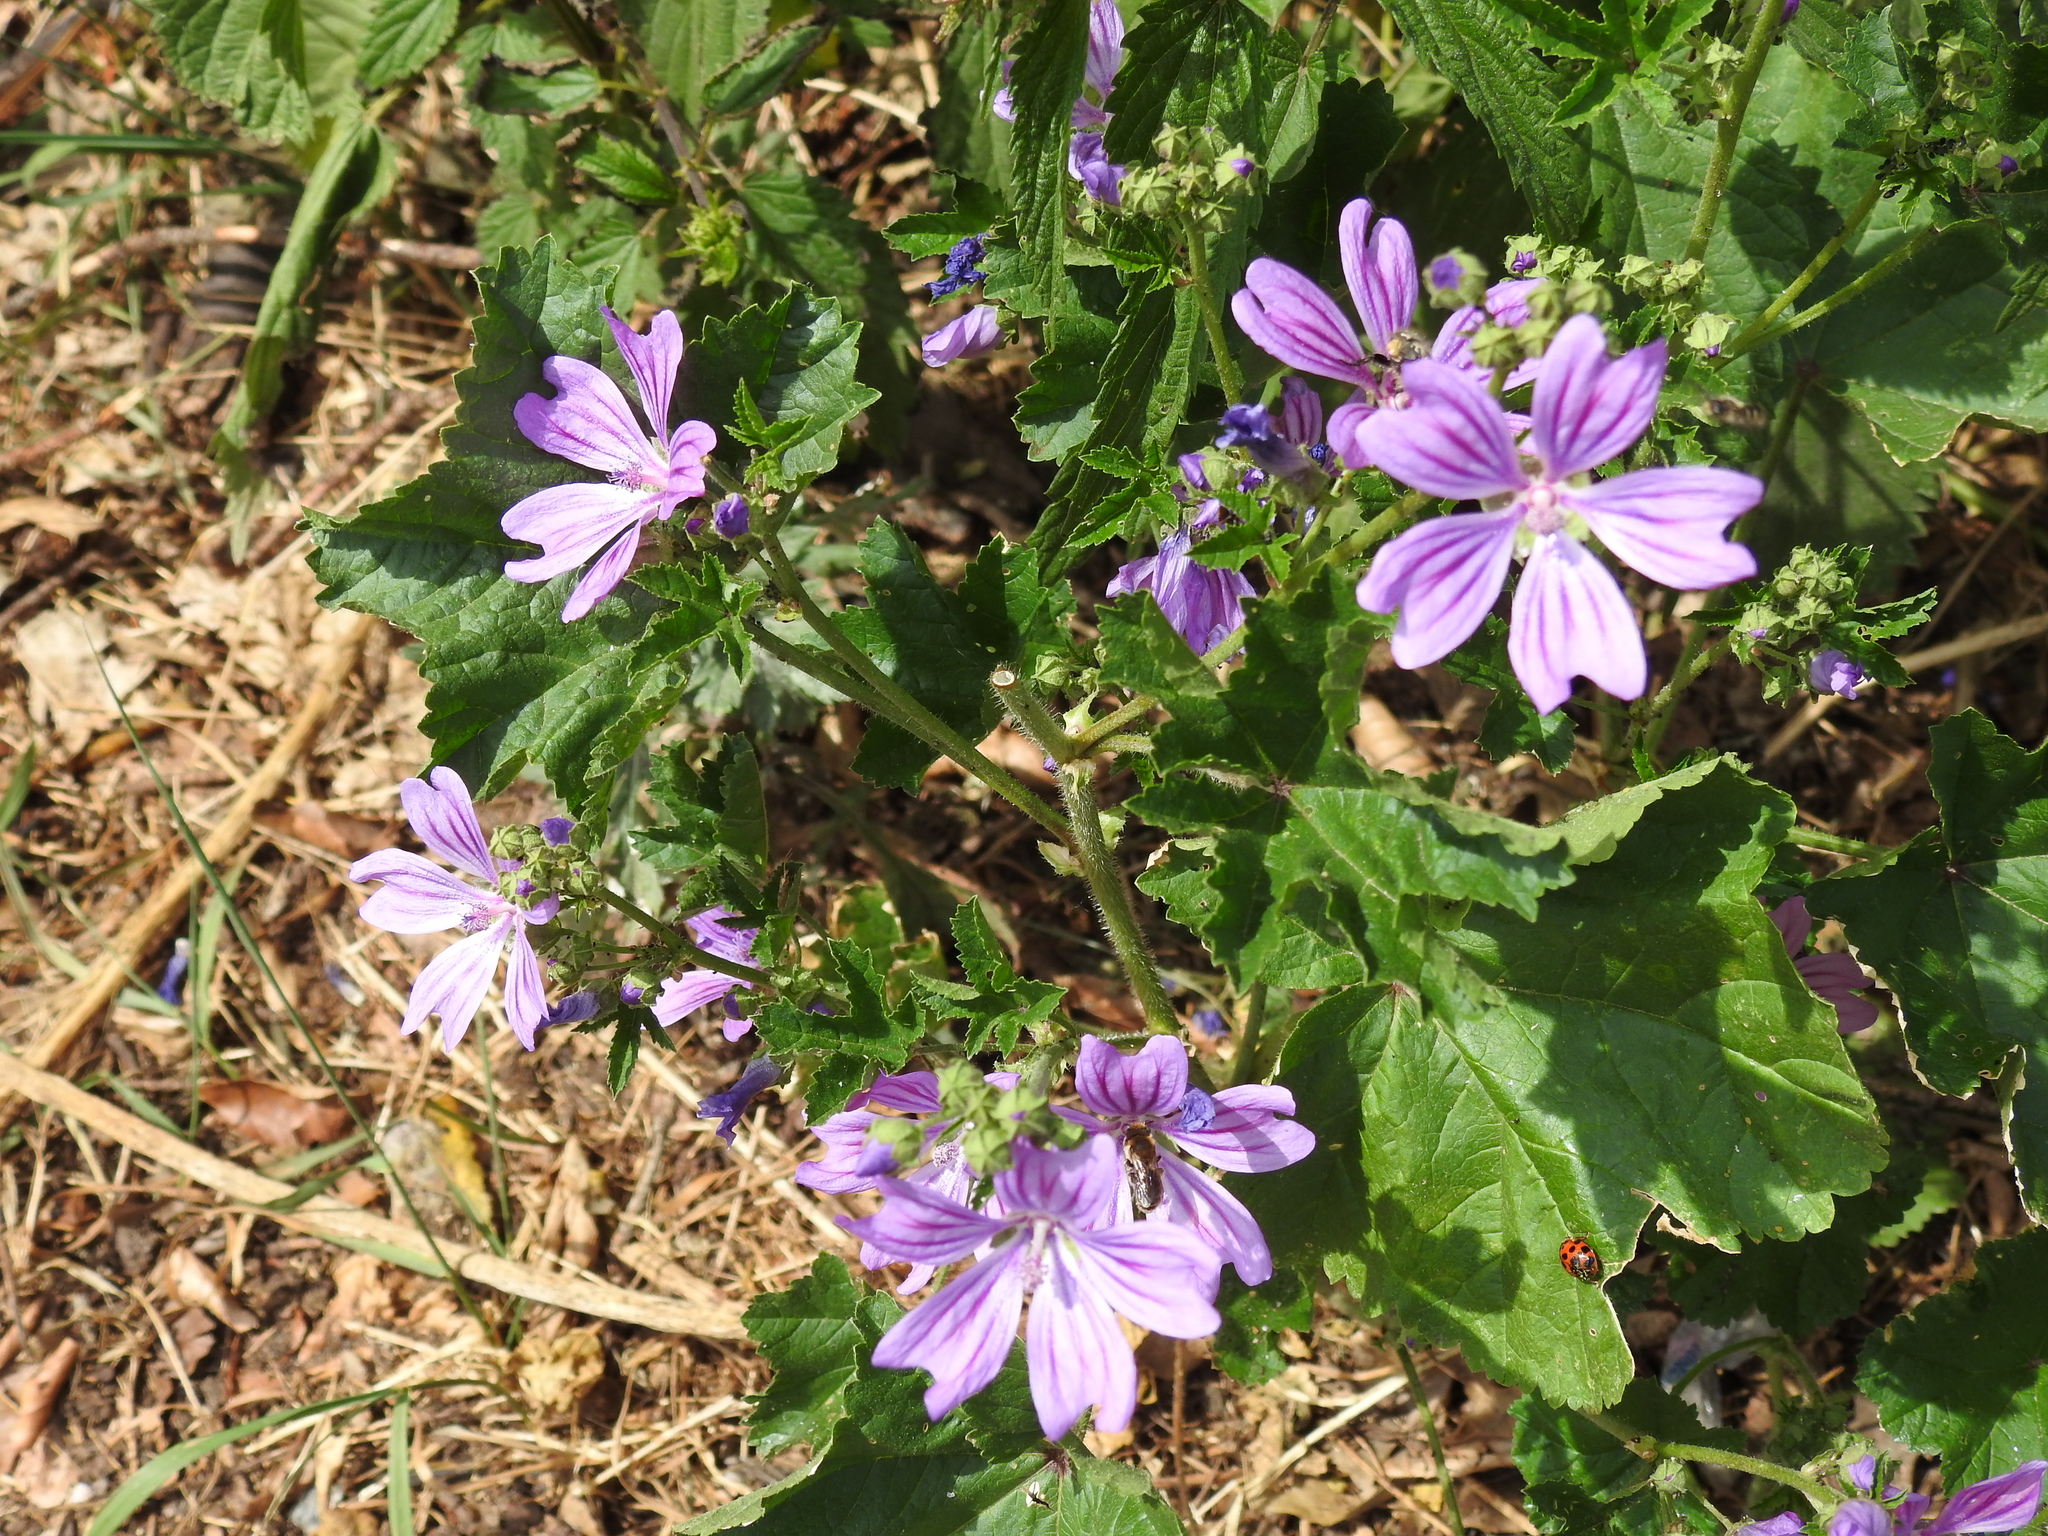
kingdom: Plantae
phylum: Tracheophyta
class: Magnoliopsida
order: Malvales
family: Malvaceae
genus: Malva
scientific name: Malva sylvestris
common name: Common mallow
